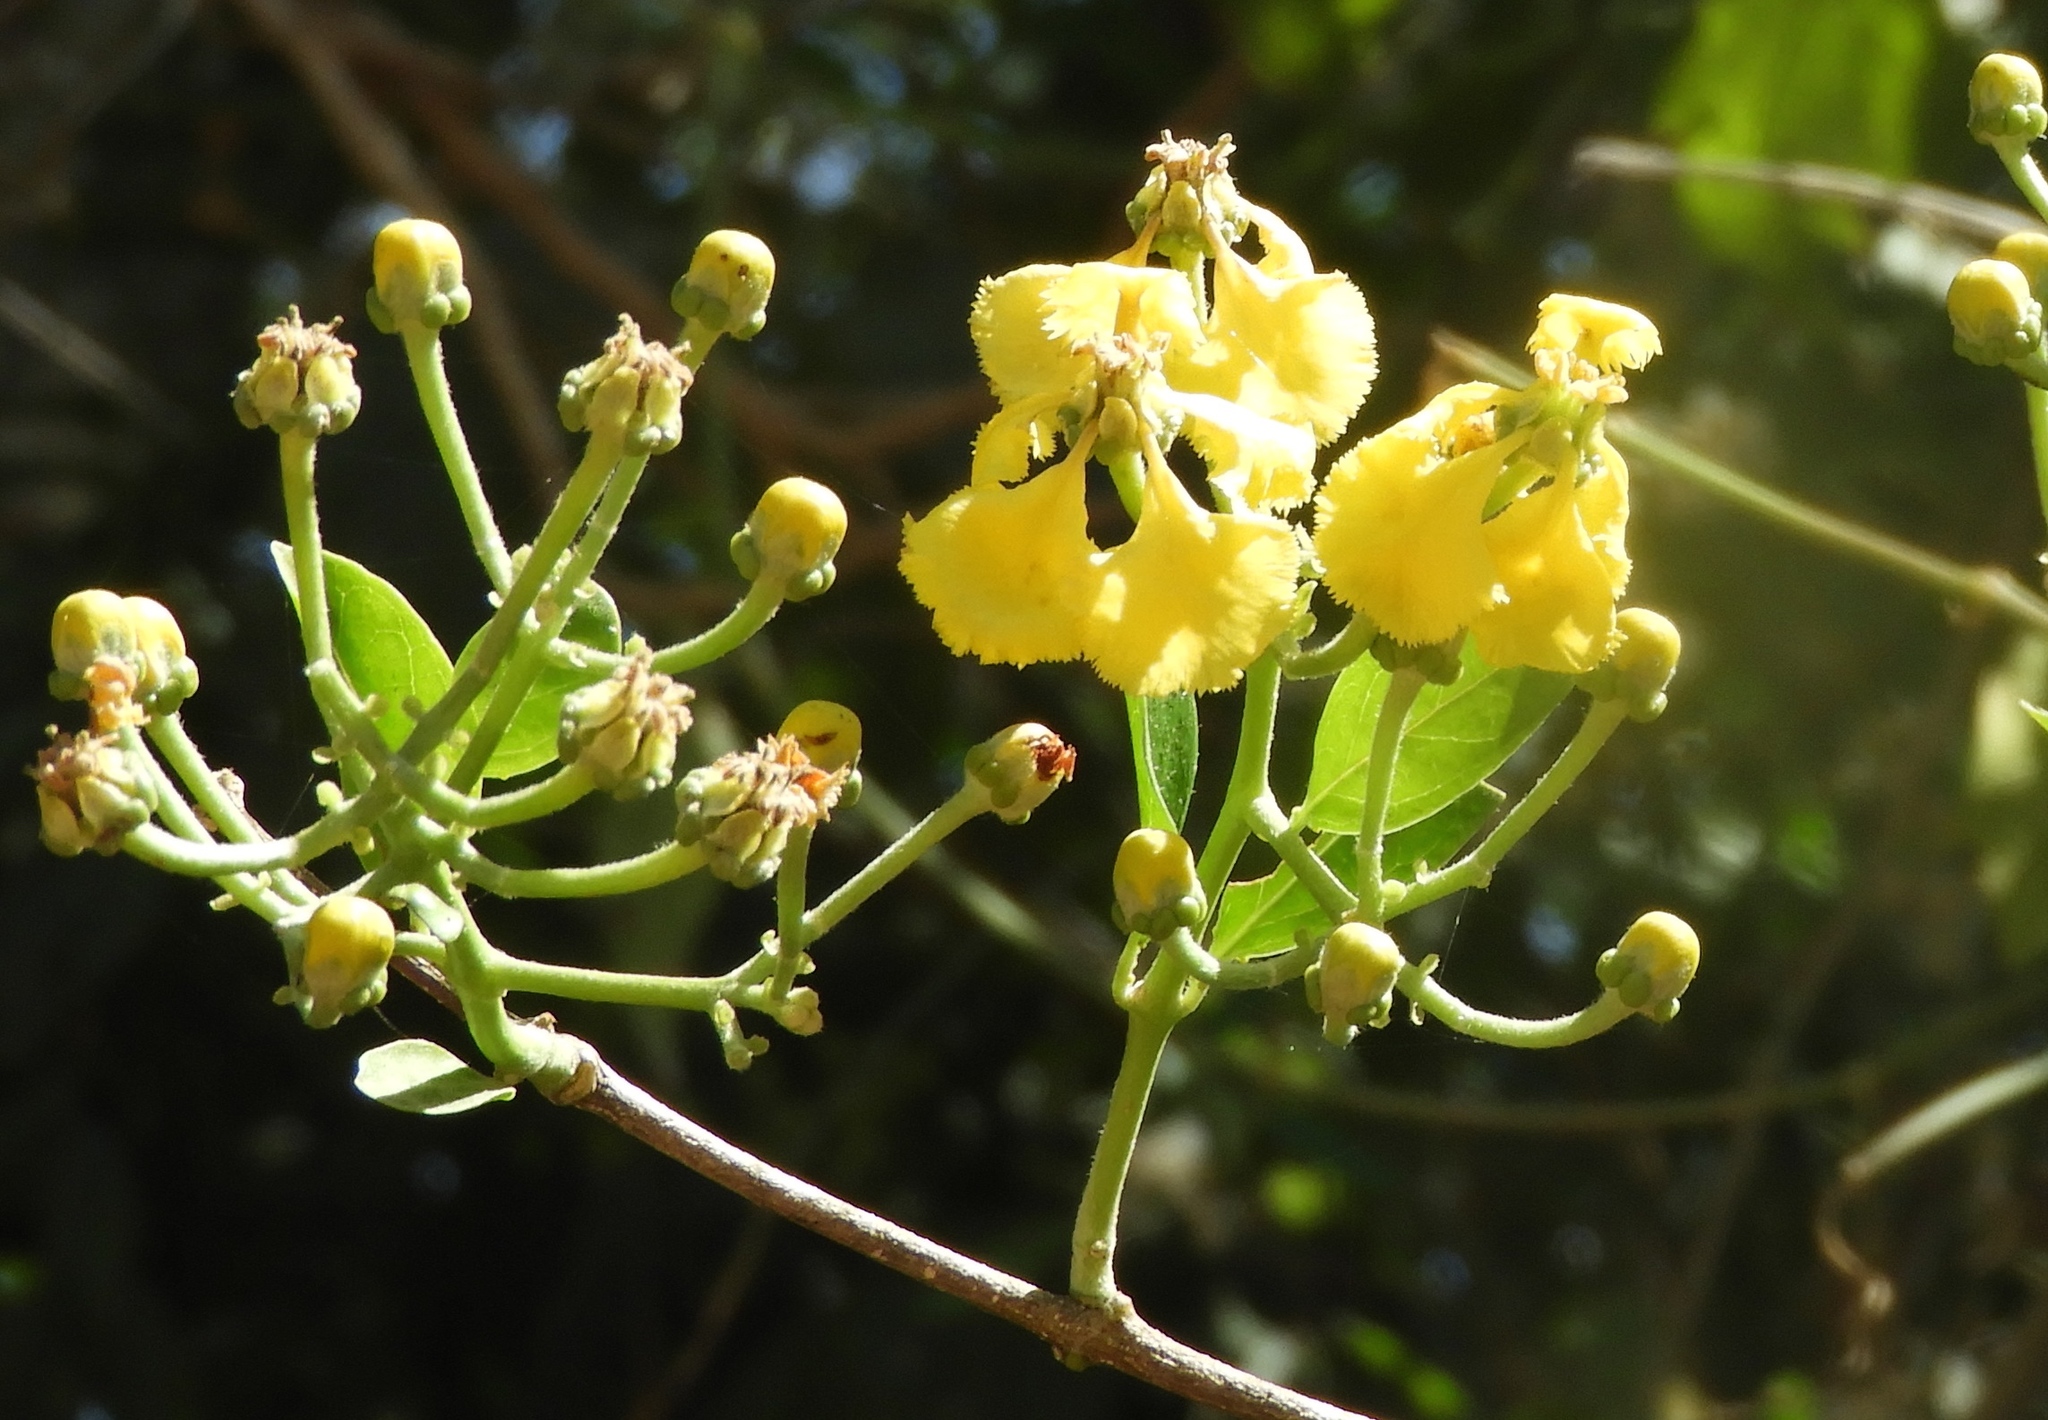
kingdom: Plantae
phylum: Tracheophyta
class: Magnoliopsida
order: Malpighiales
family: Malpighiaceae
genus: Callaeum
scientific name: Callaeum macropterum
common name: Mexican butterfly-vine
